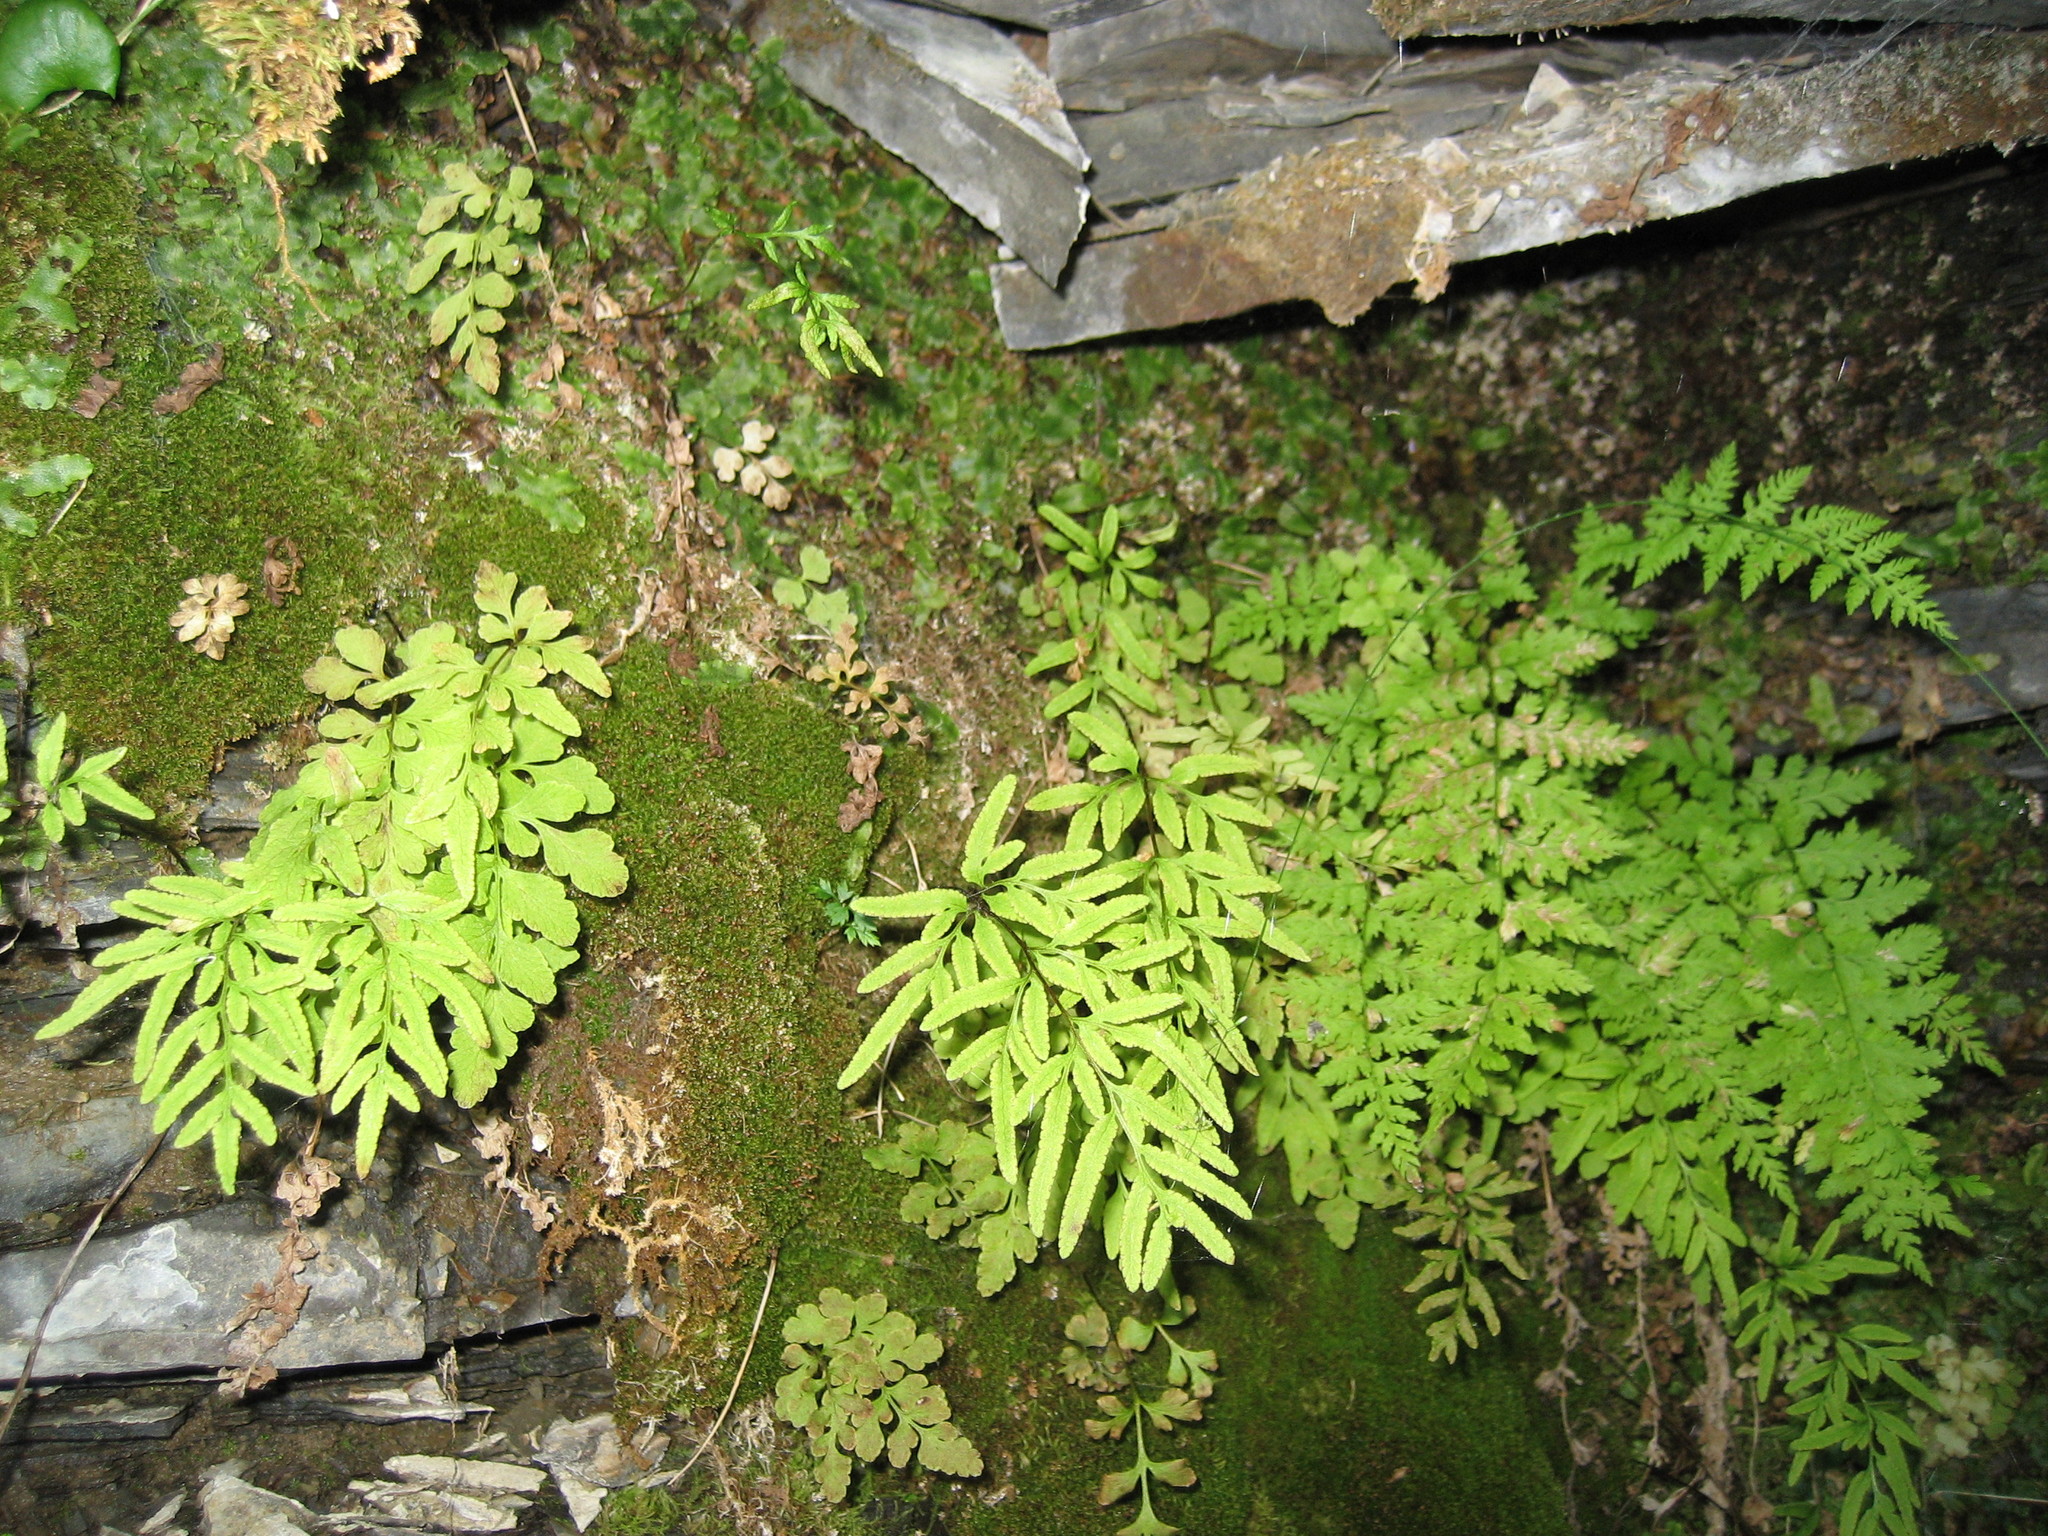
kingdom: Plantae
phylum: Tracheophyta
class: Polypodiopsida
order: Polypodiales
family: Pteridaceae
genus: Cryptogramma
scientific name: Cryptogramma stelleri
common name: Cliff-brake
